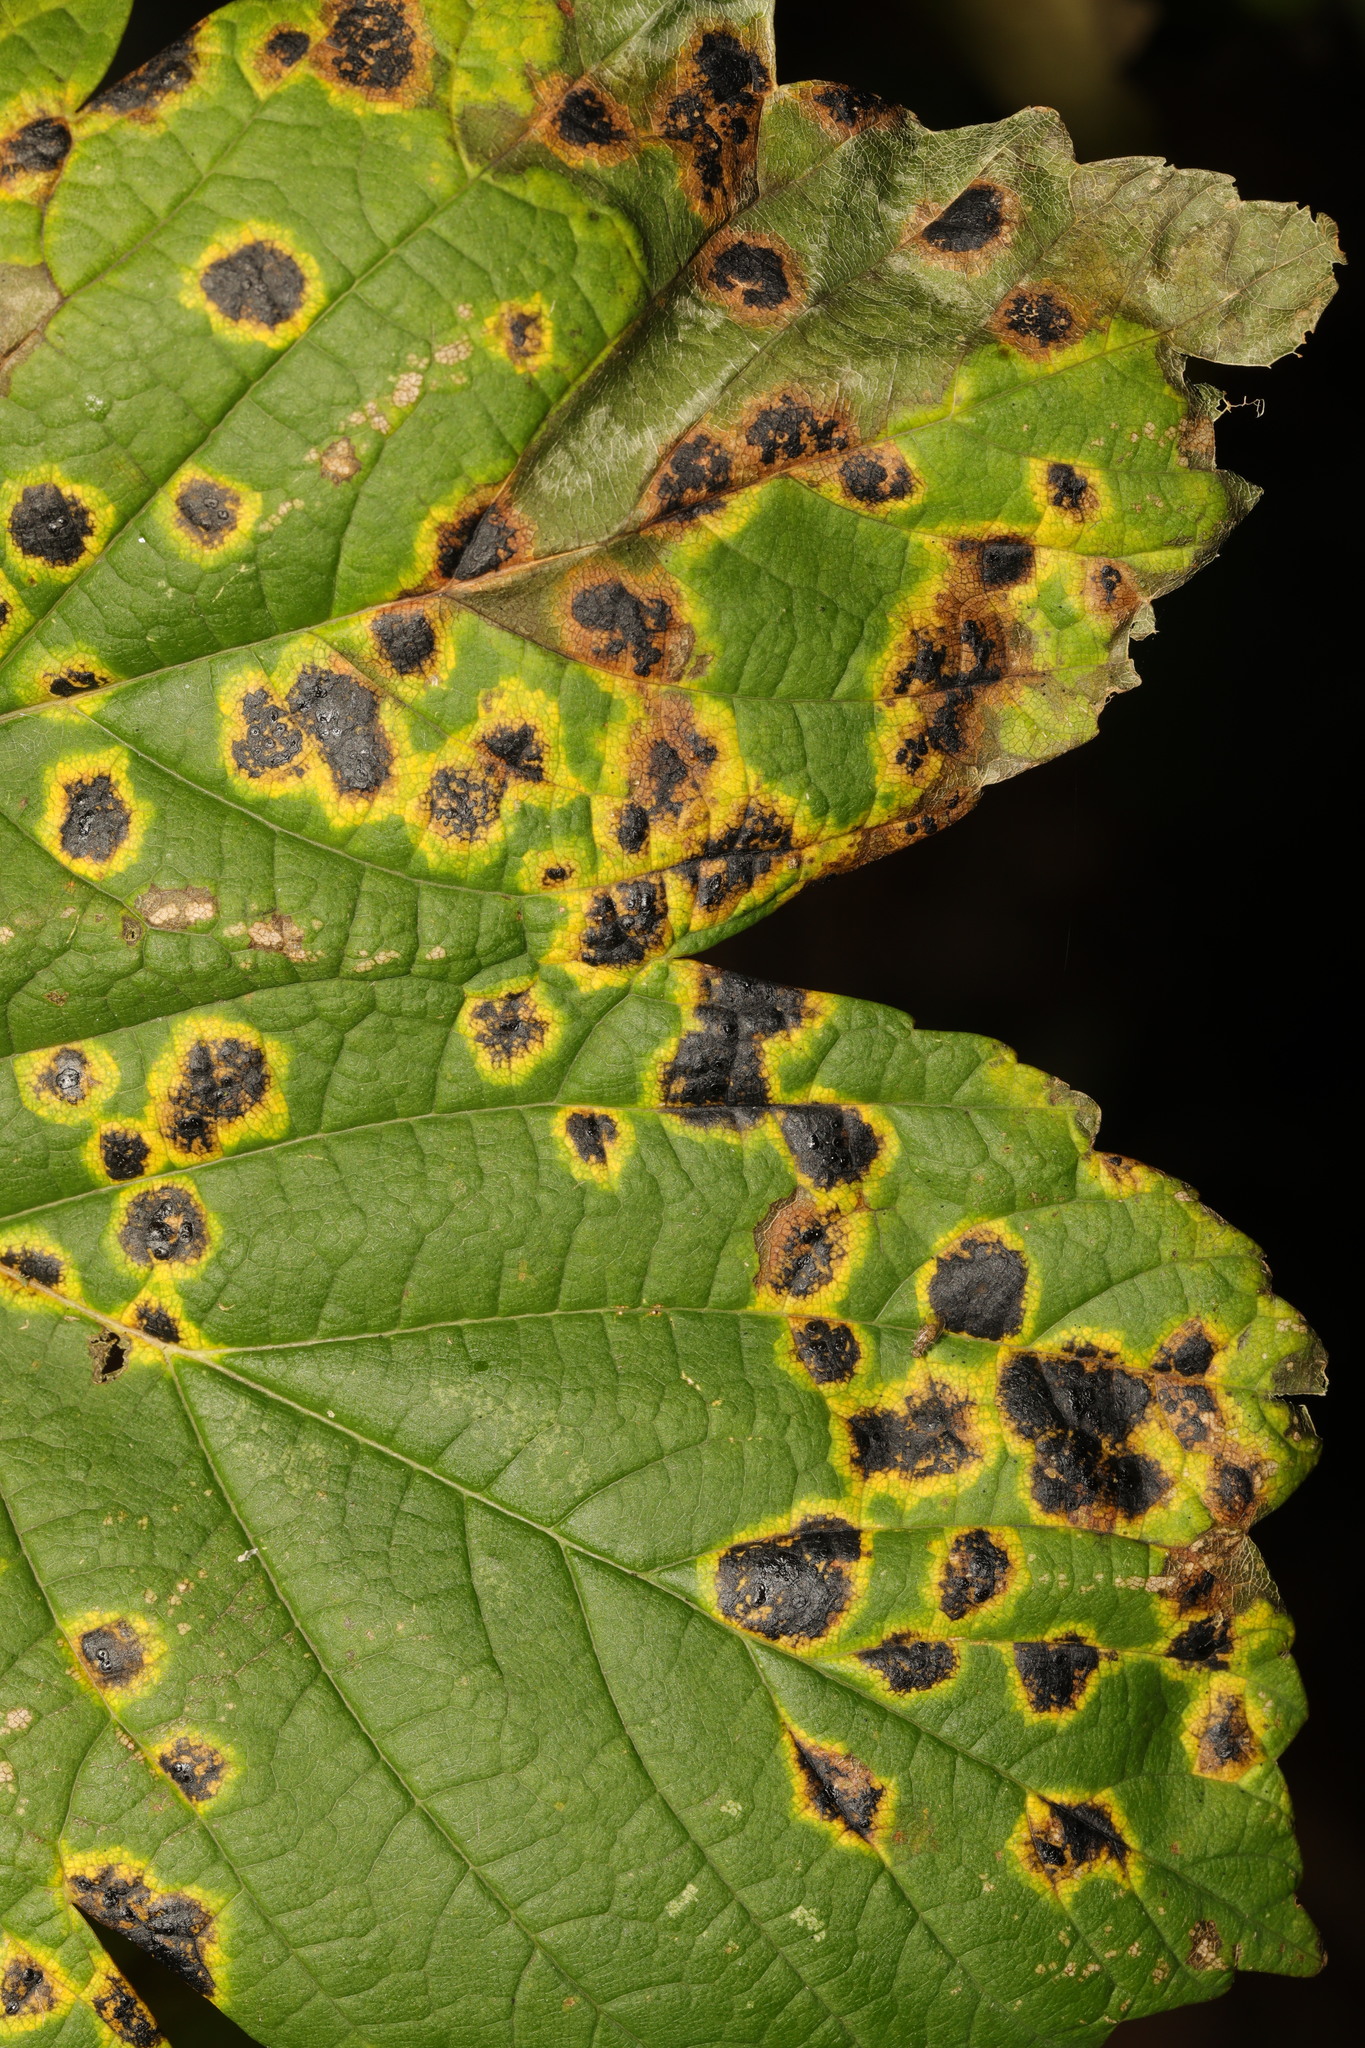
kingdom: Fungi
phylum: Ascomycota
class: Leotiomycetes
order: Rhytismatales
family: Rhytismataceae
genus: Rhytisma
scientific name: Rhytisma acerinum
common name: European tar spot
